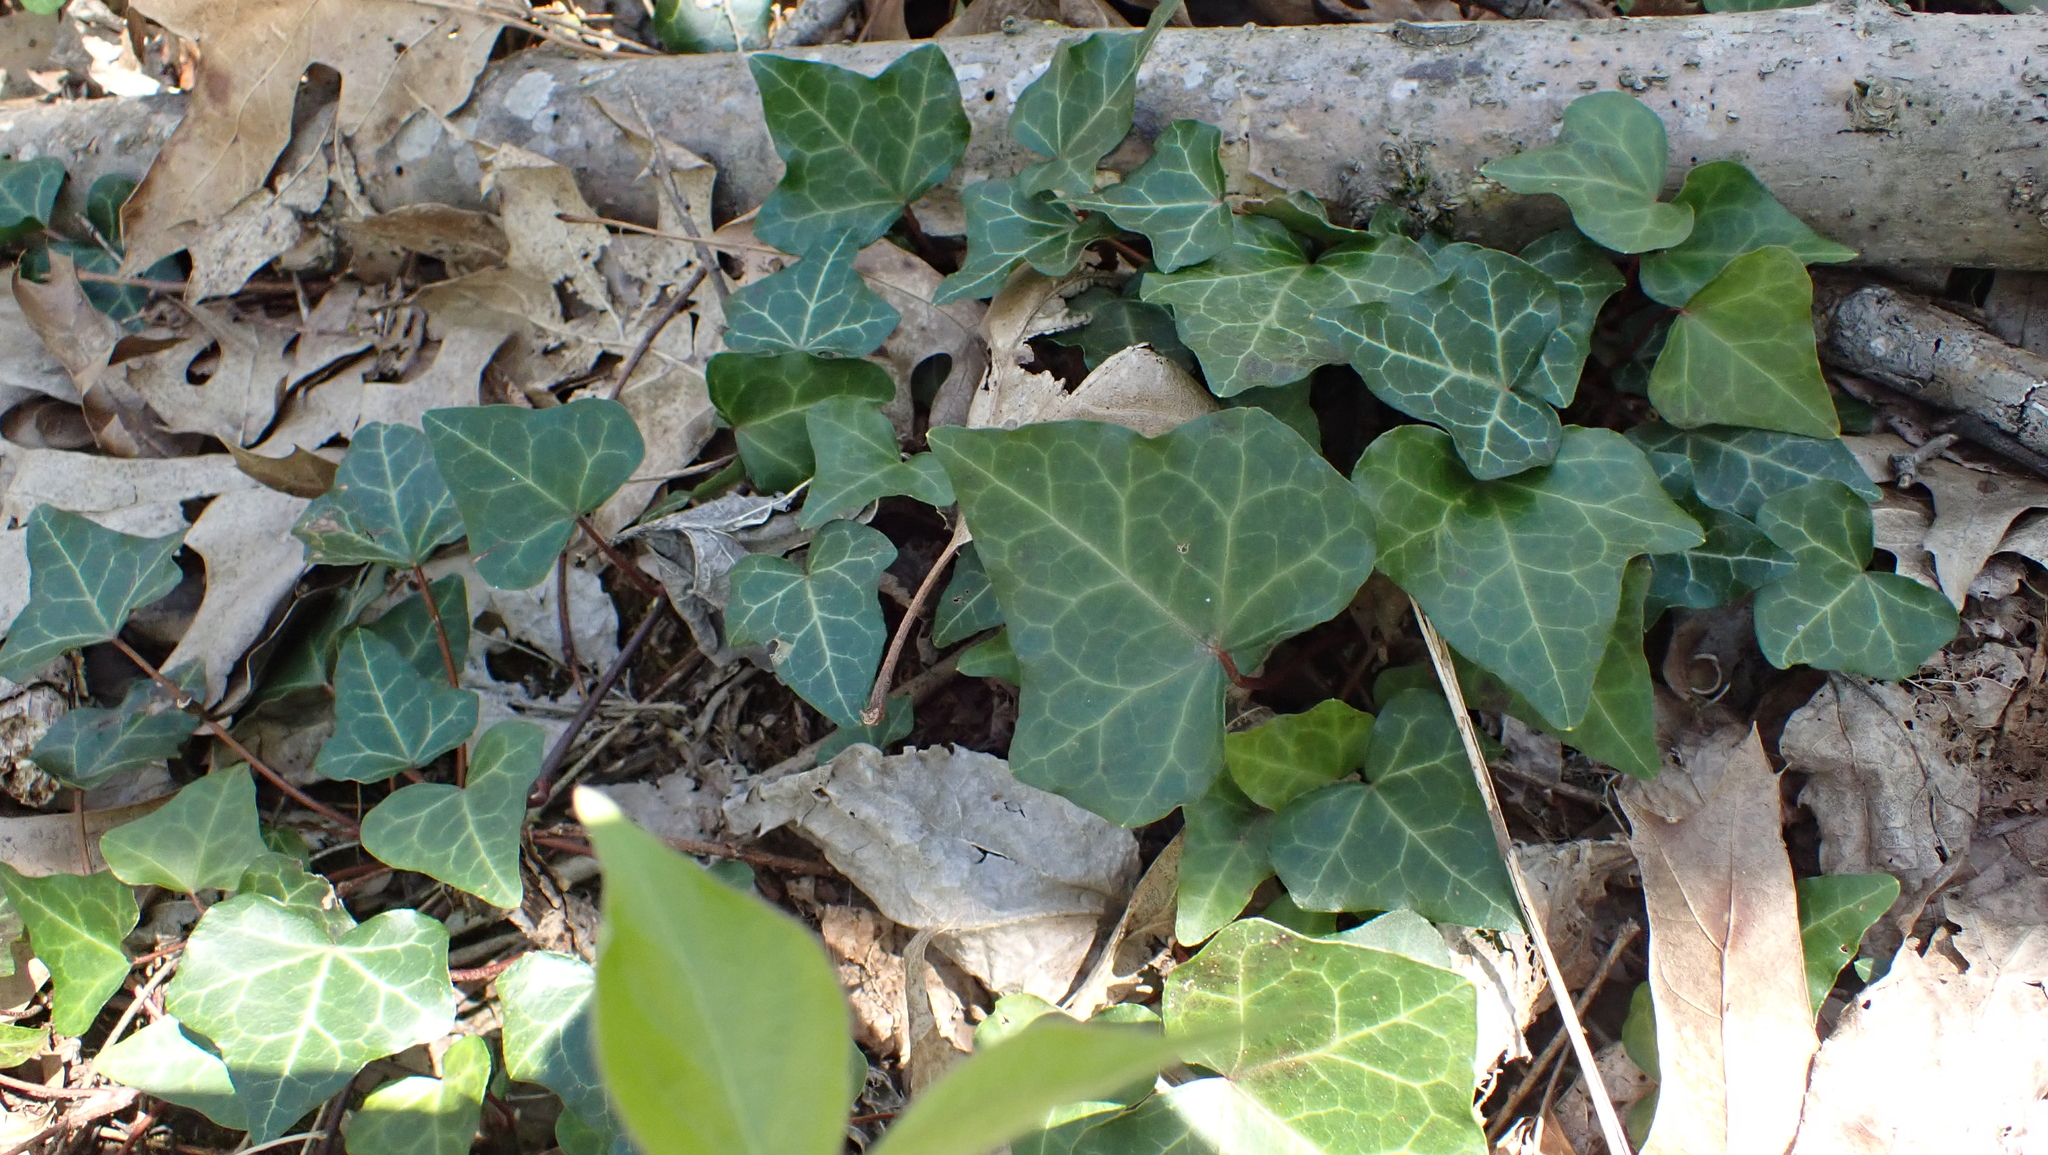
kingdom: Plantae
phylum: Tracheophyta
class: Magnoliopsida
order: Apiales
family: Araliaceae
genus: Hedera
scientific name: Hedera helix
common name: Ivy
